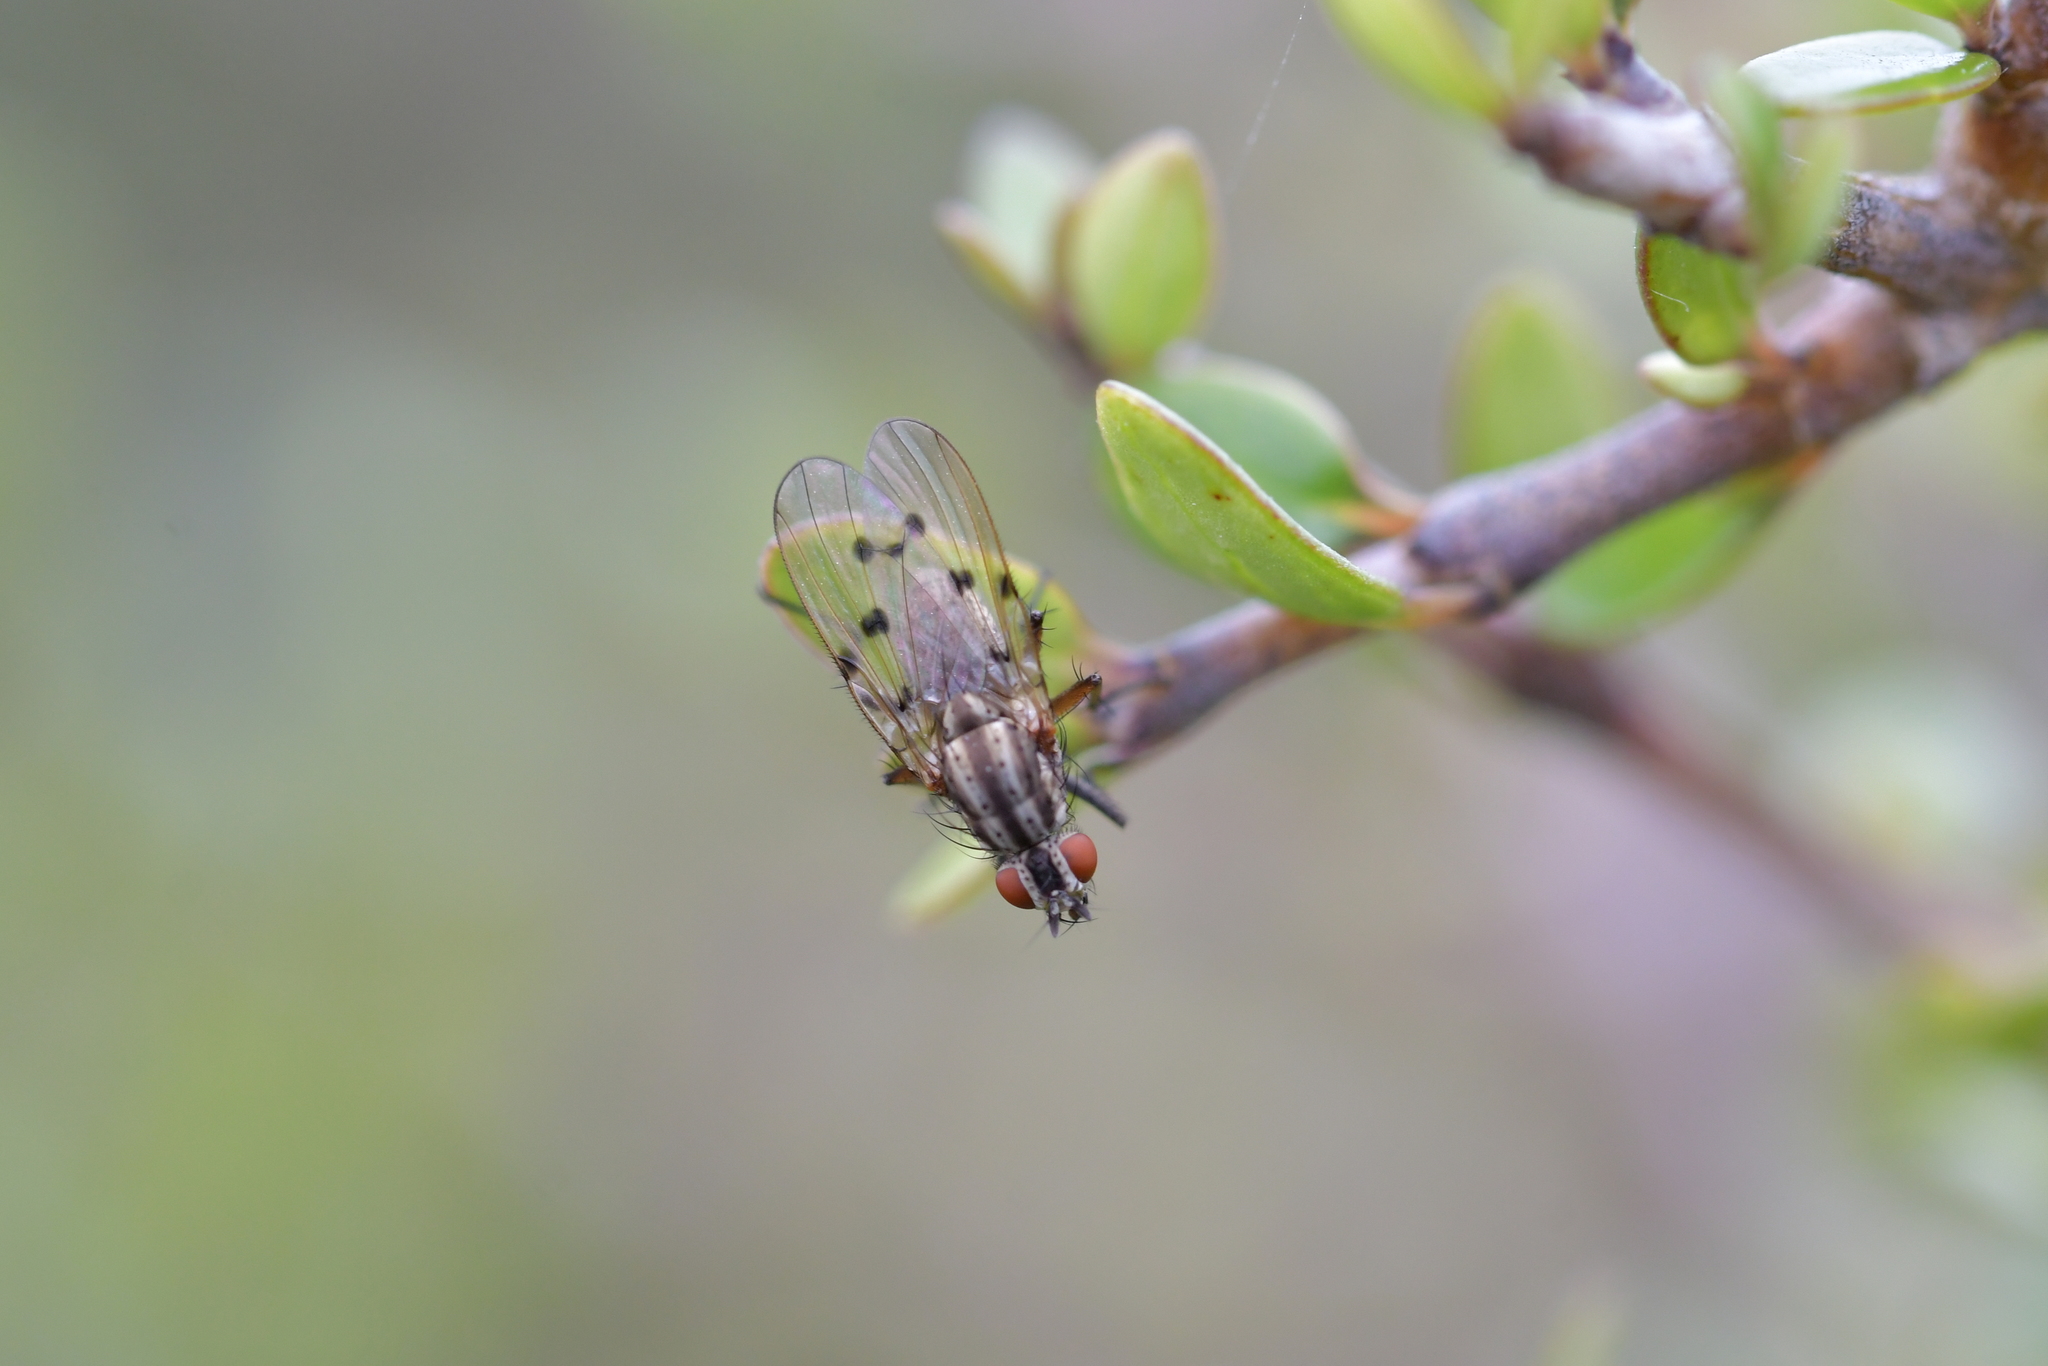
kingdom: Animalia
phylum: Arthropoda
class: Insecta
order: Diptera
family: Anthomyiidae
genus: Anthomyia
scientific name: Anthomyia punctipennis
